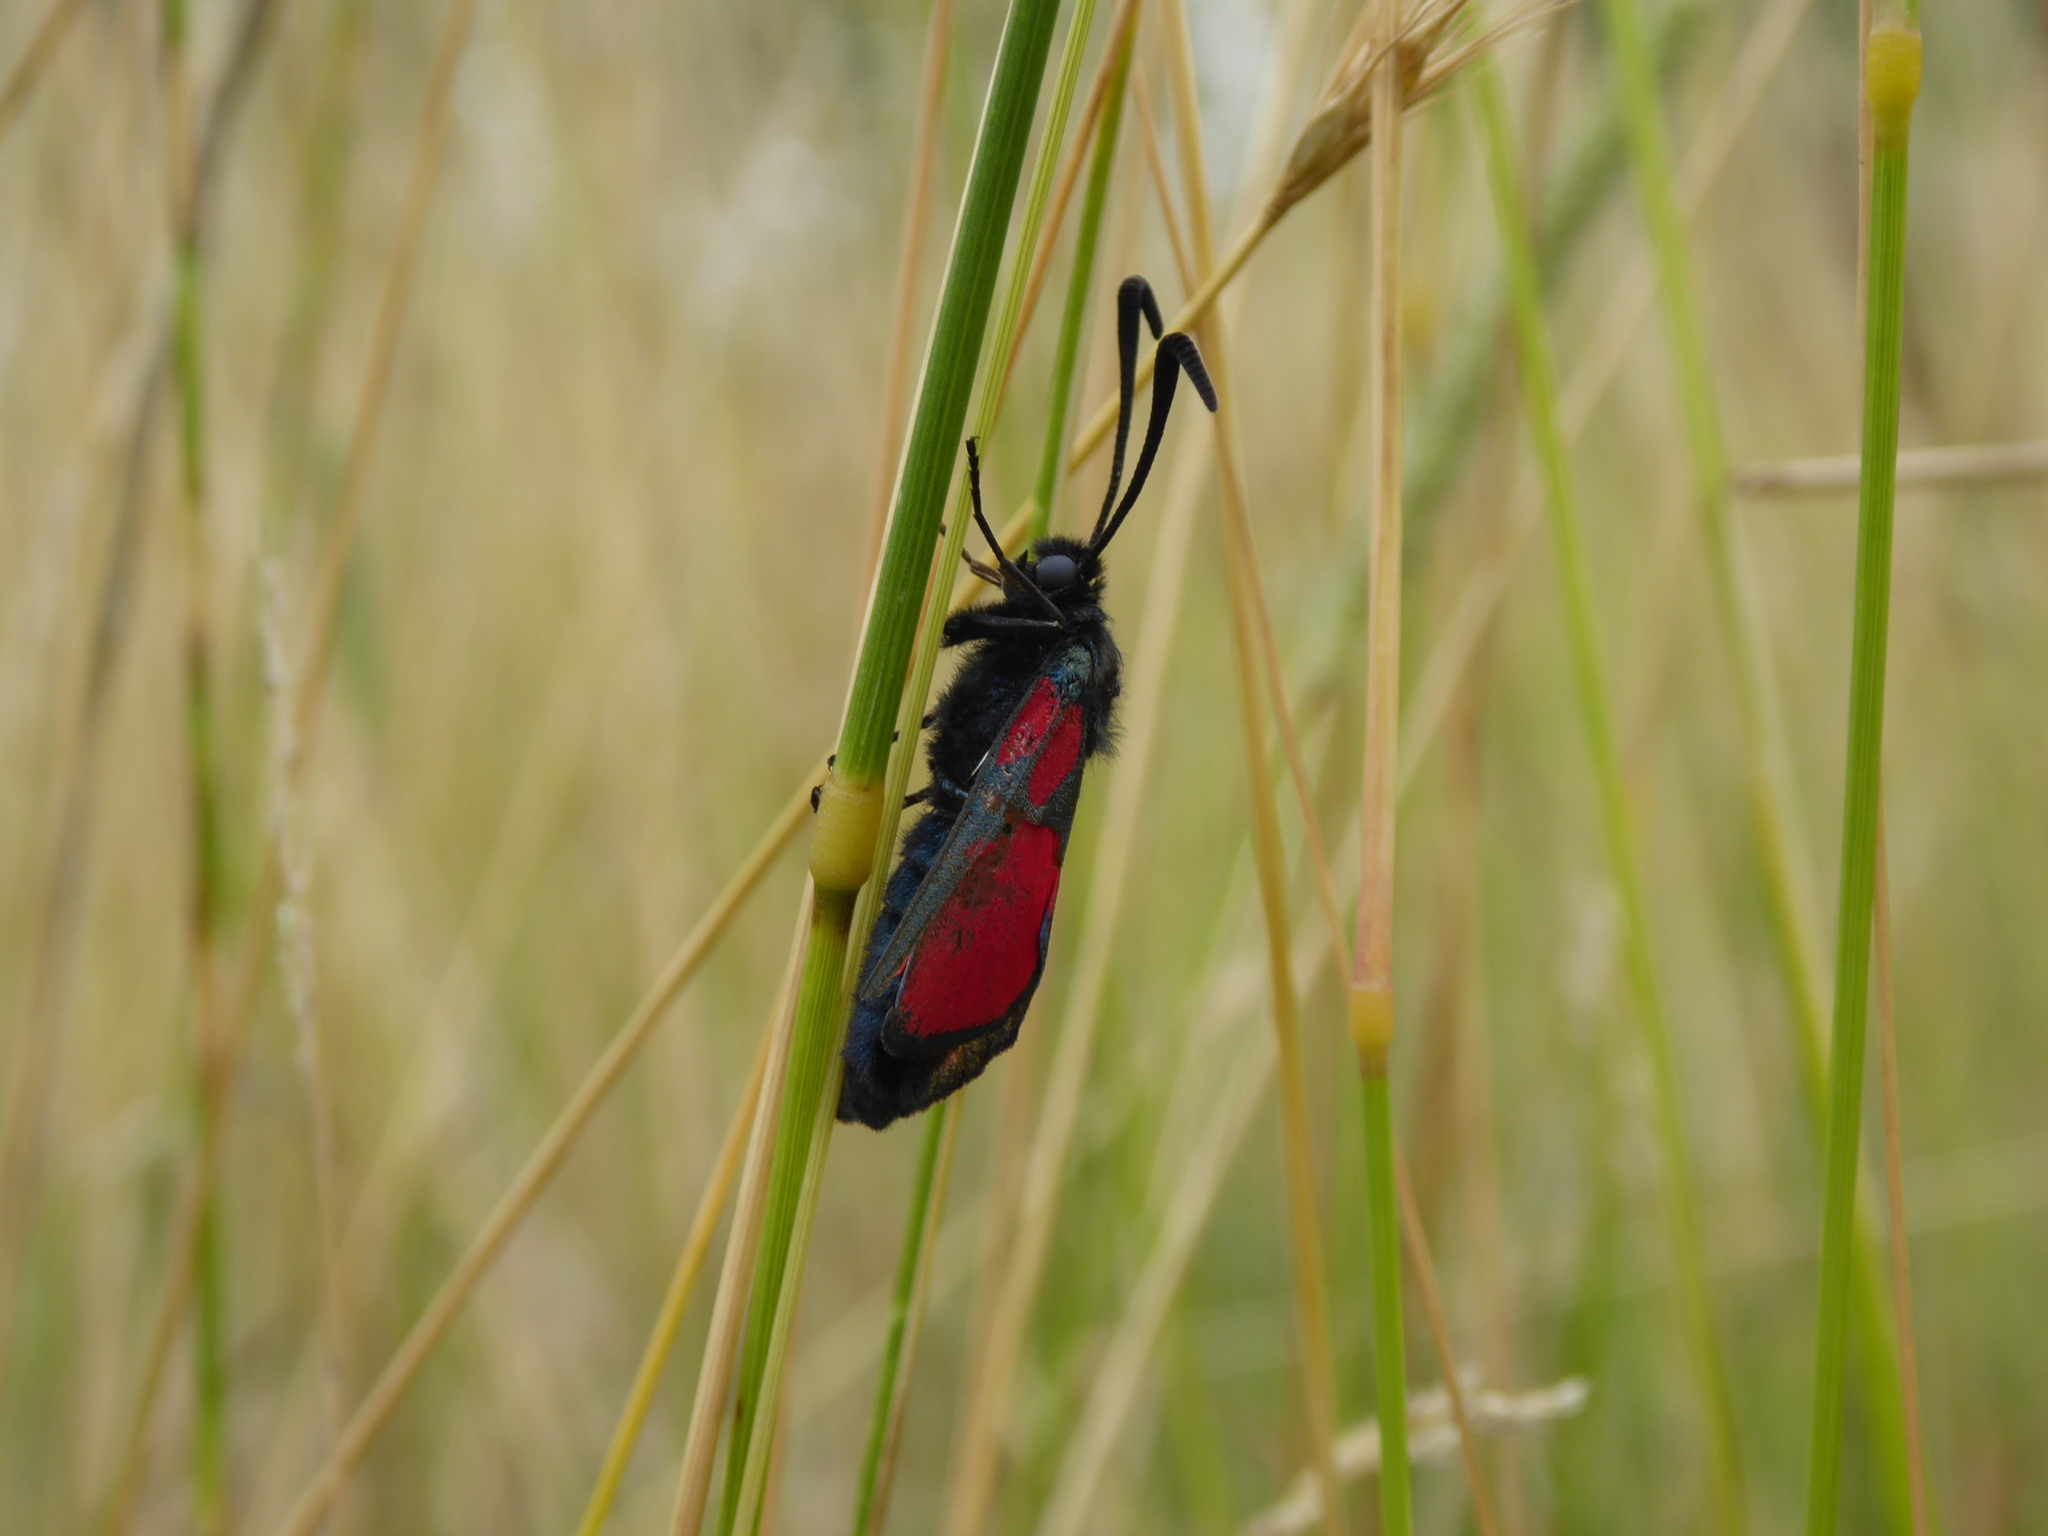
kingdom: Animalia
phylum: Arthropoda
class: Insecta
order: Lepidoptera
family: Zygaenidae
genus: Zygaena
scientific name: Zygaena filipendulae
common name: Six-spot burnet
